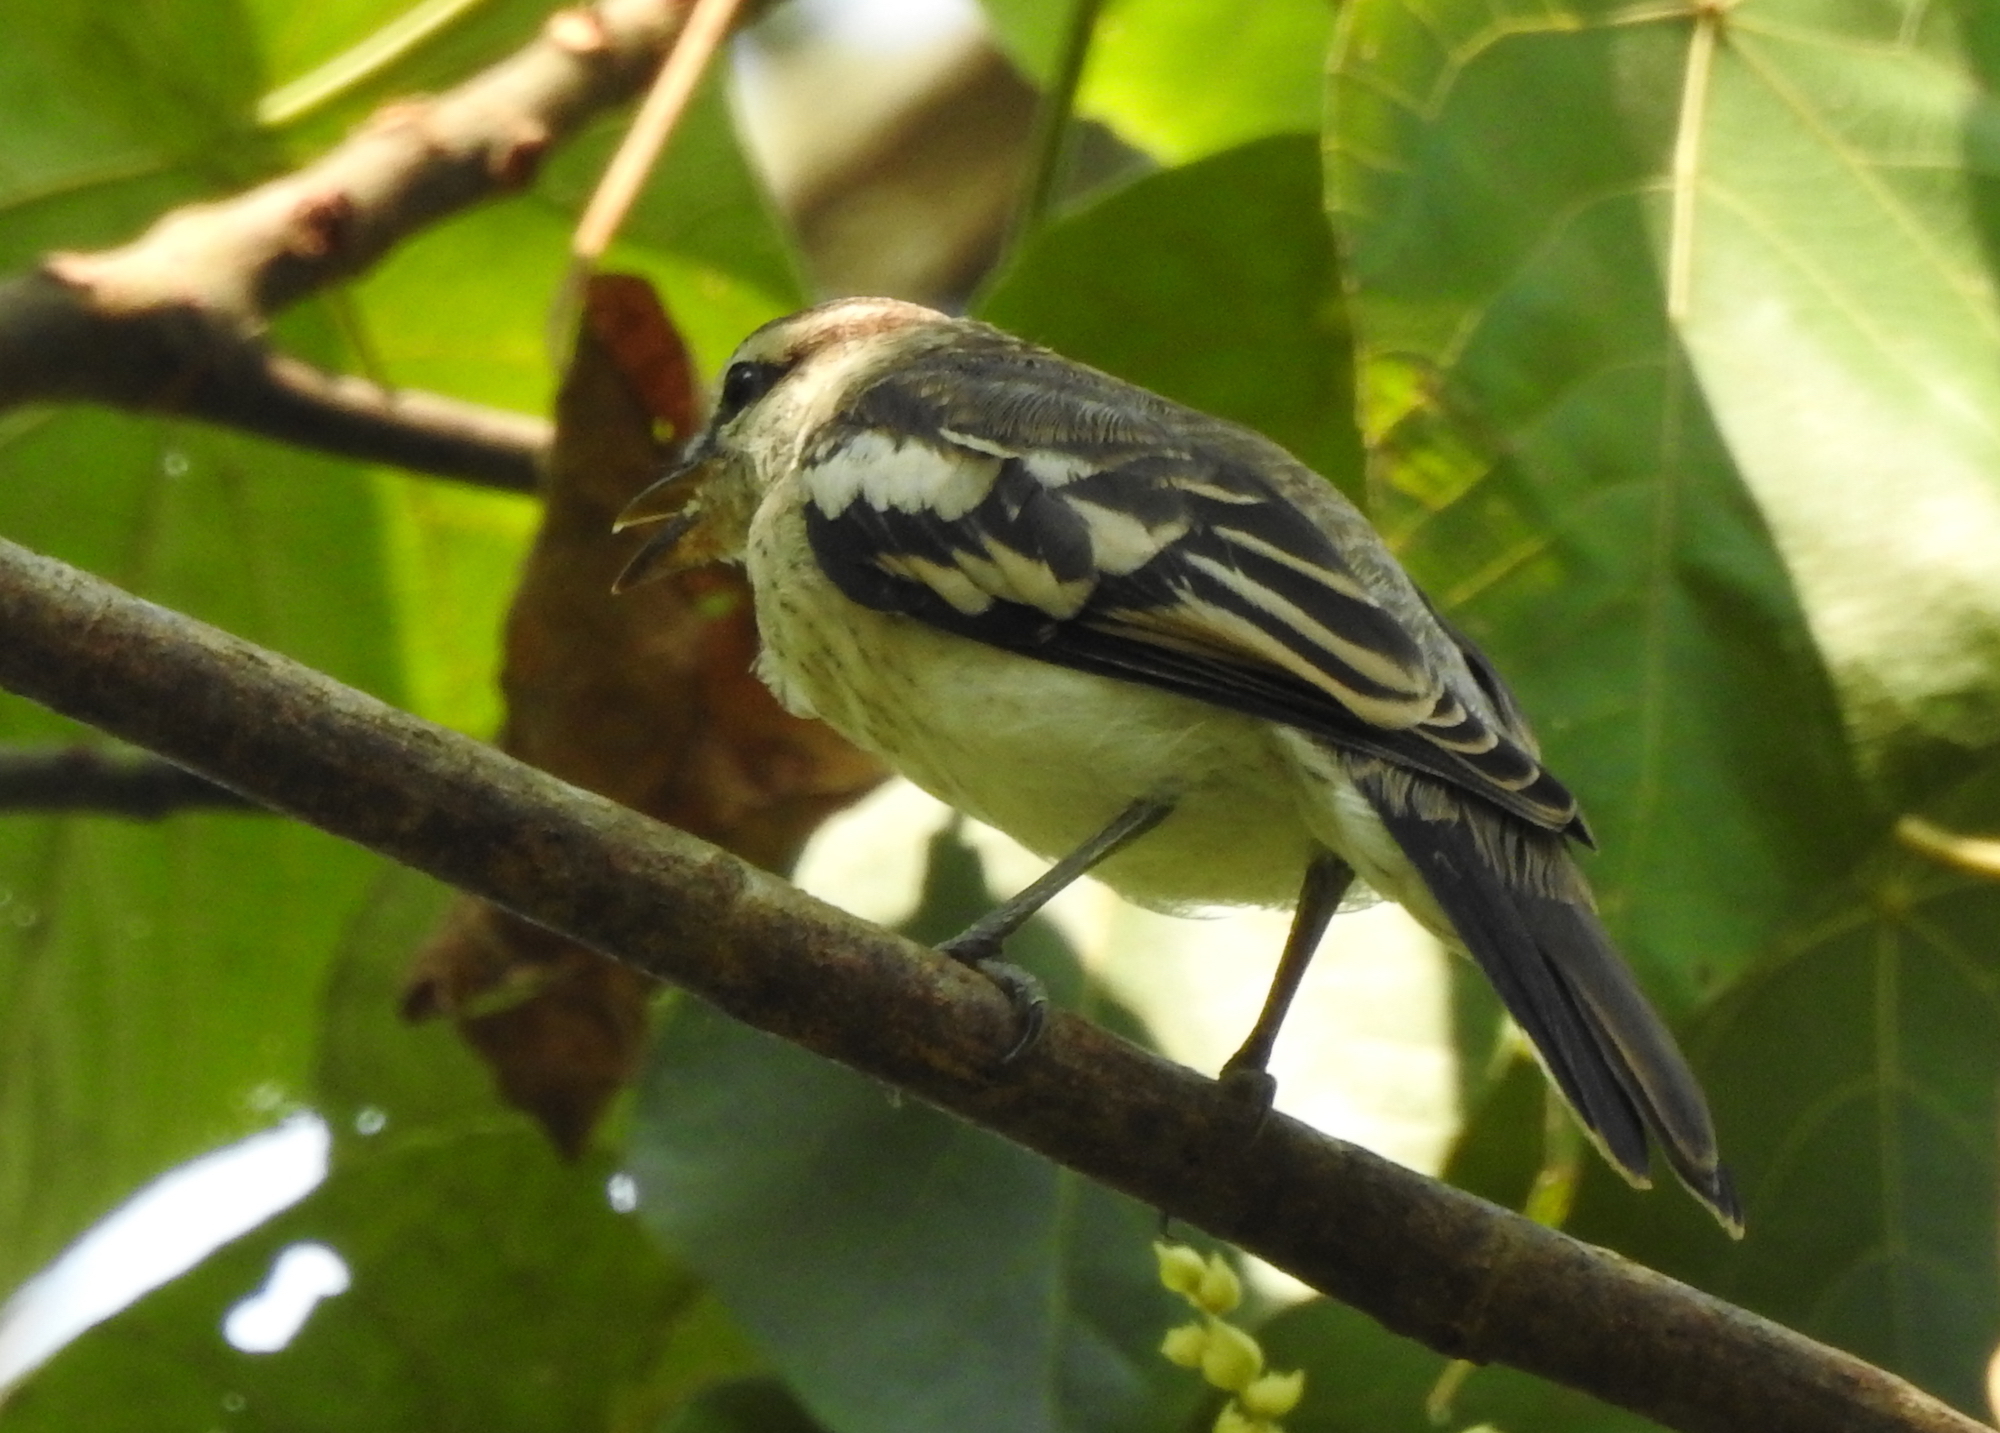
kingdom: Animalia
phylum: Chordata
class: Aves
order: Passeriformes
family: Campephagidae
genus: Lalage
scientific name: Lalage nigra
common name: Pied triller
